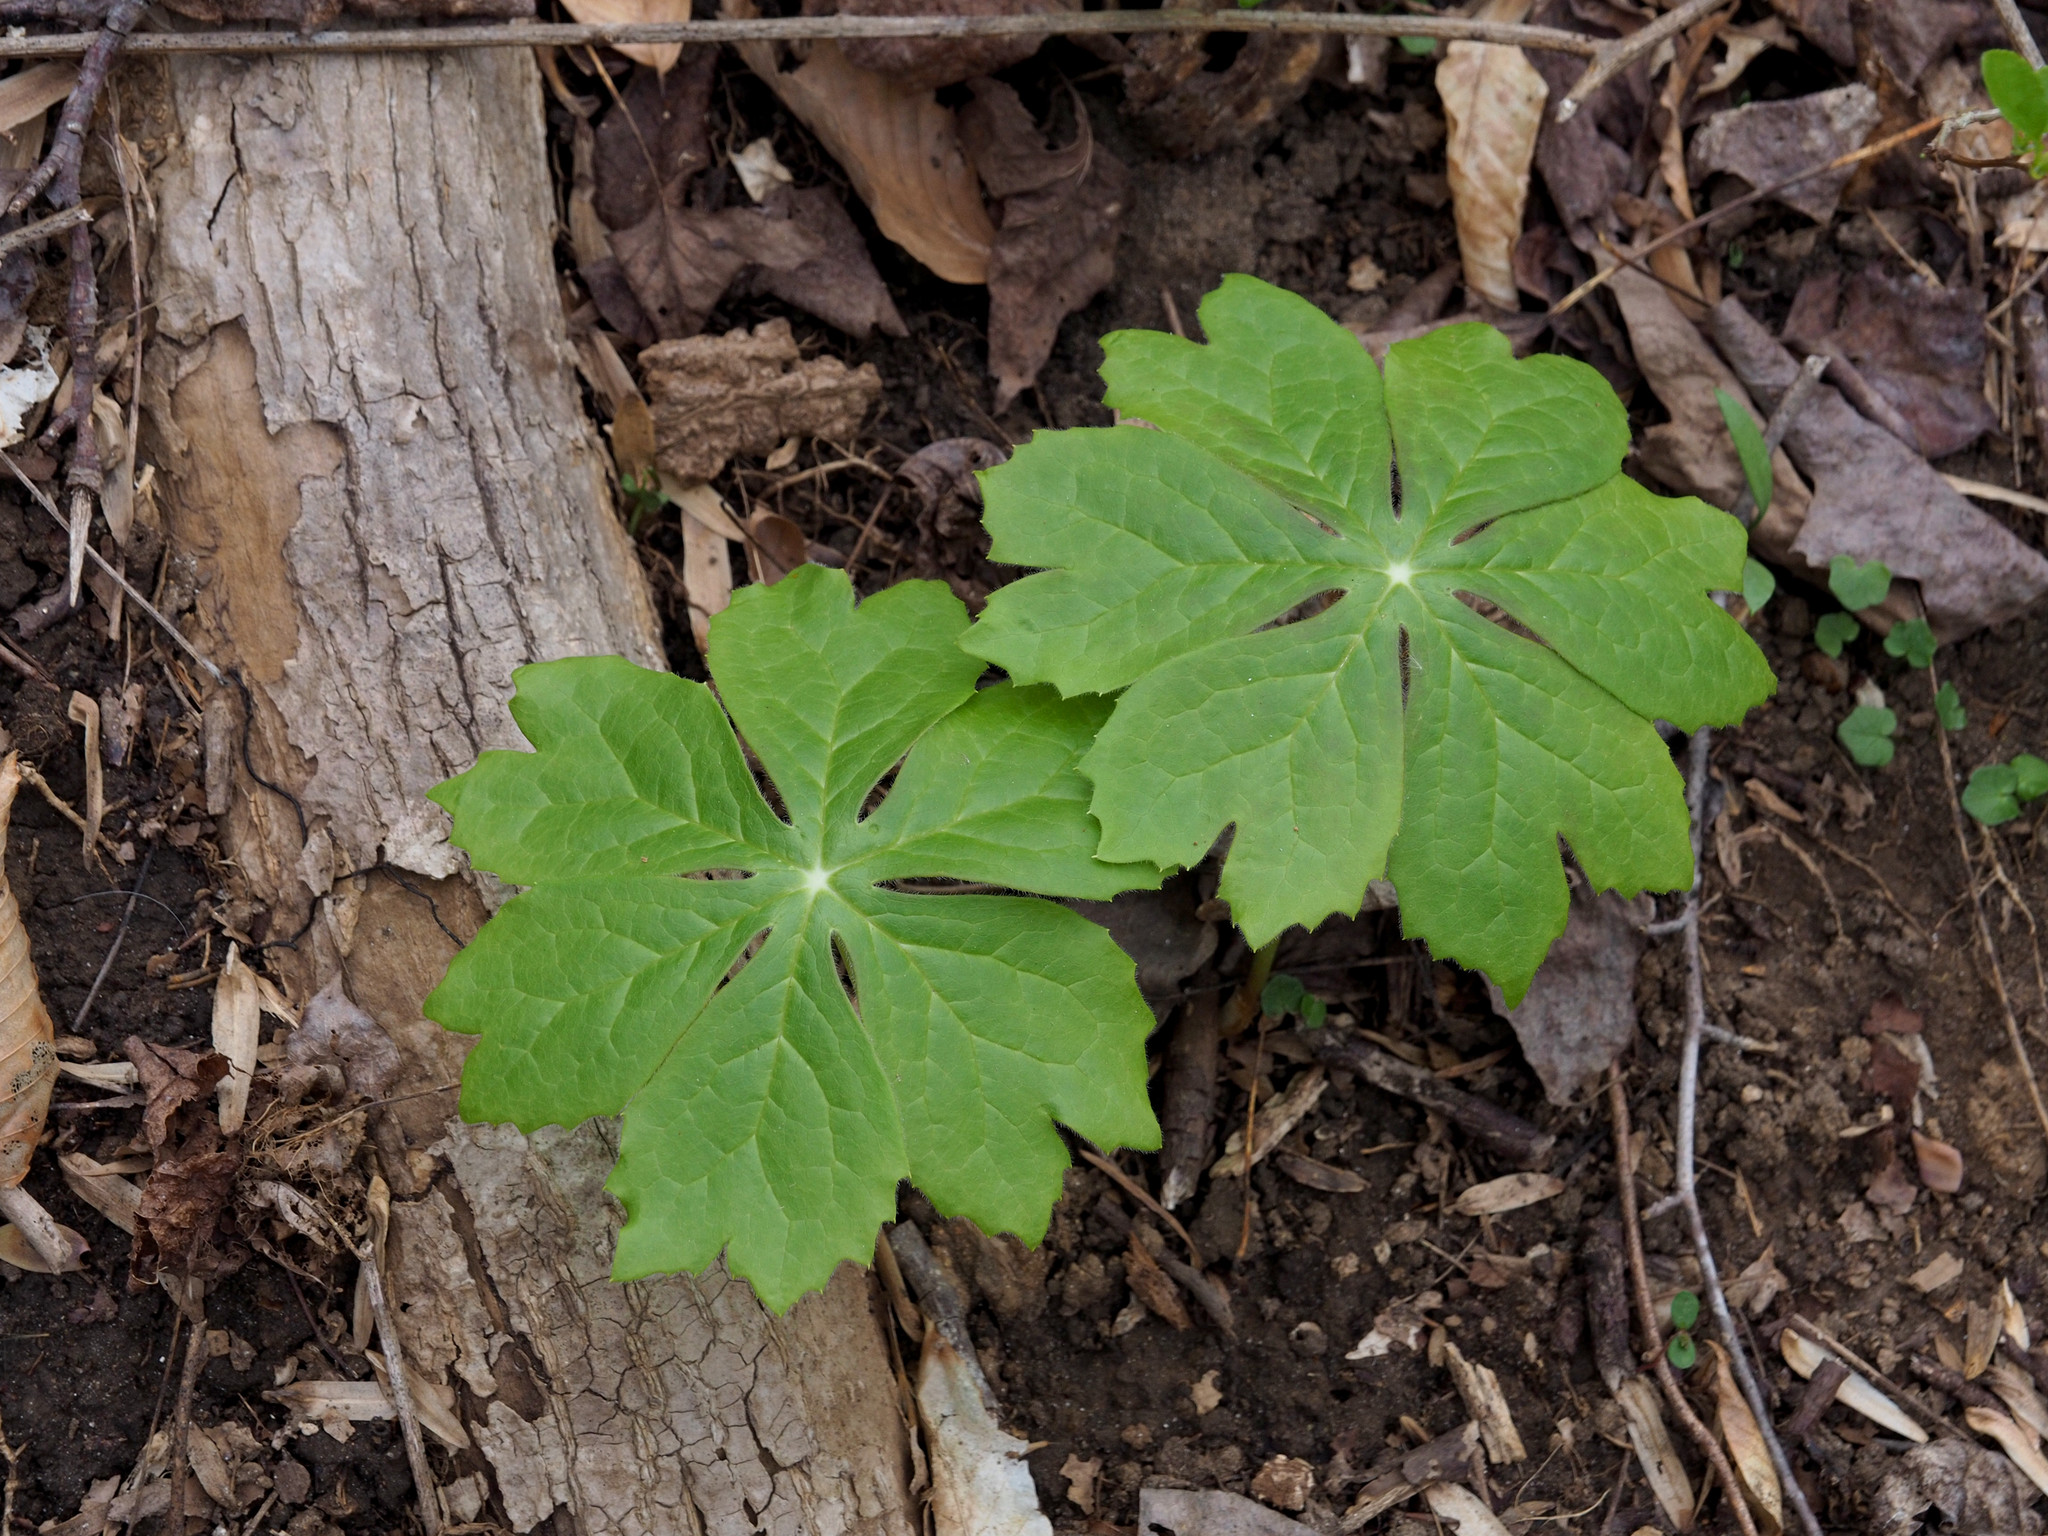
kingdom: Plantae
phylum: Tracheophyta
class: Magnoliopsida
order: Ranunculales
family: Berberidaceae
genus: Podophyllum
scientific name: Podophyllum peltatum
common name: Wild mandrake
